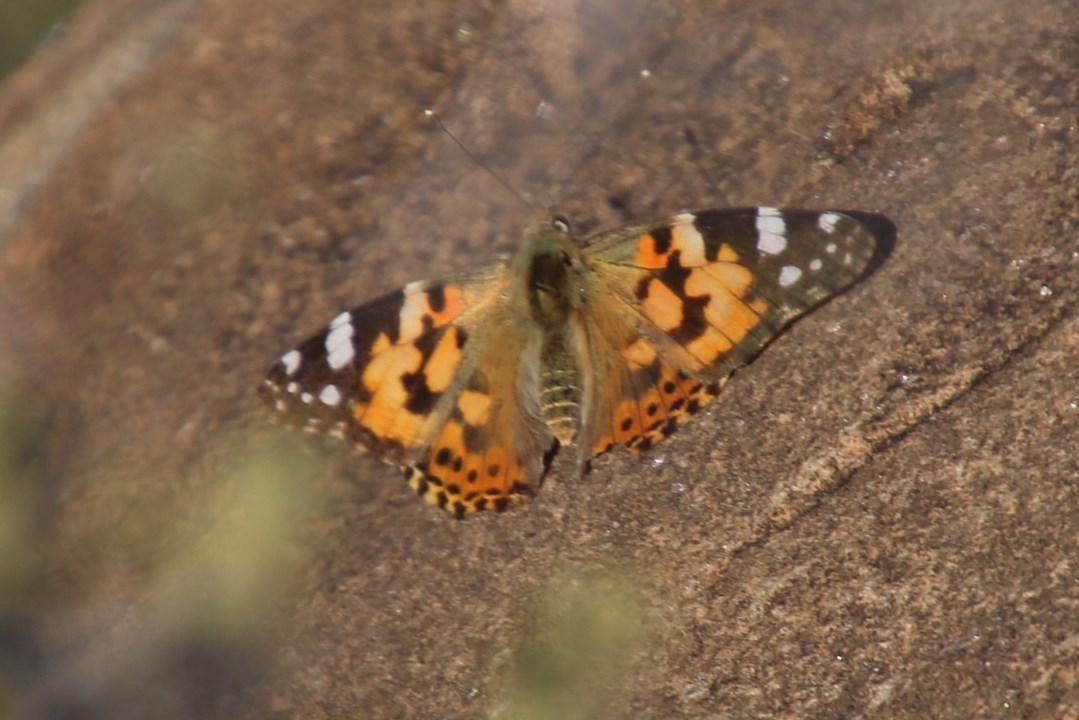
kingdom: Animalia
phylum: Arthropoda
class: Insecta
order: Lepidoptera
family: Nymphalidae
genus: Vanessa
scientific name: Vanessa cardui
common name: Painted lady
